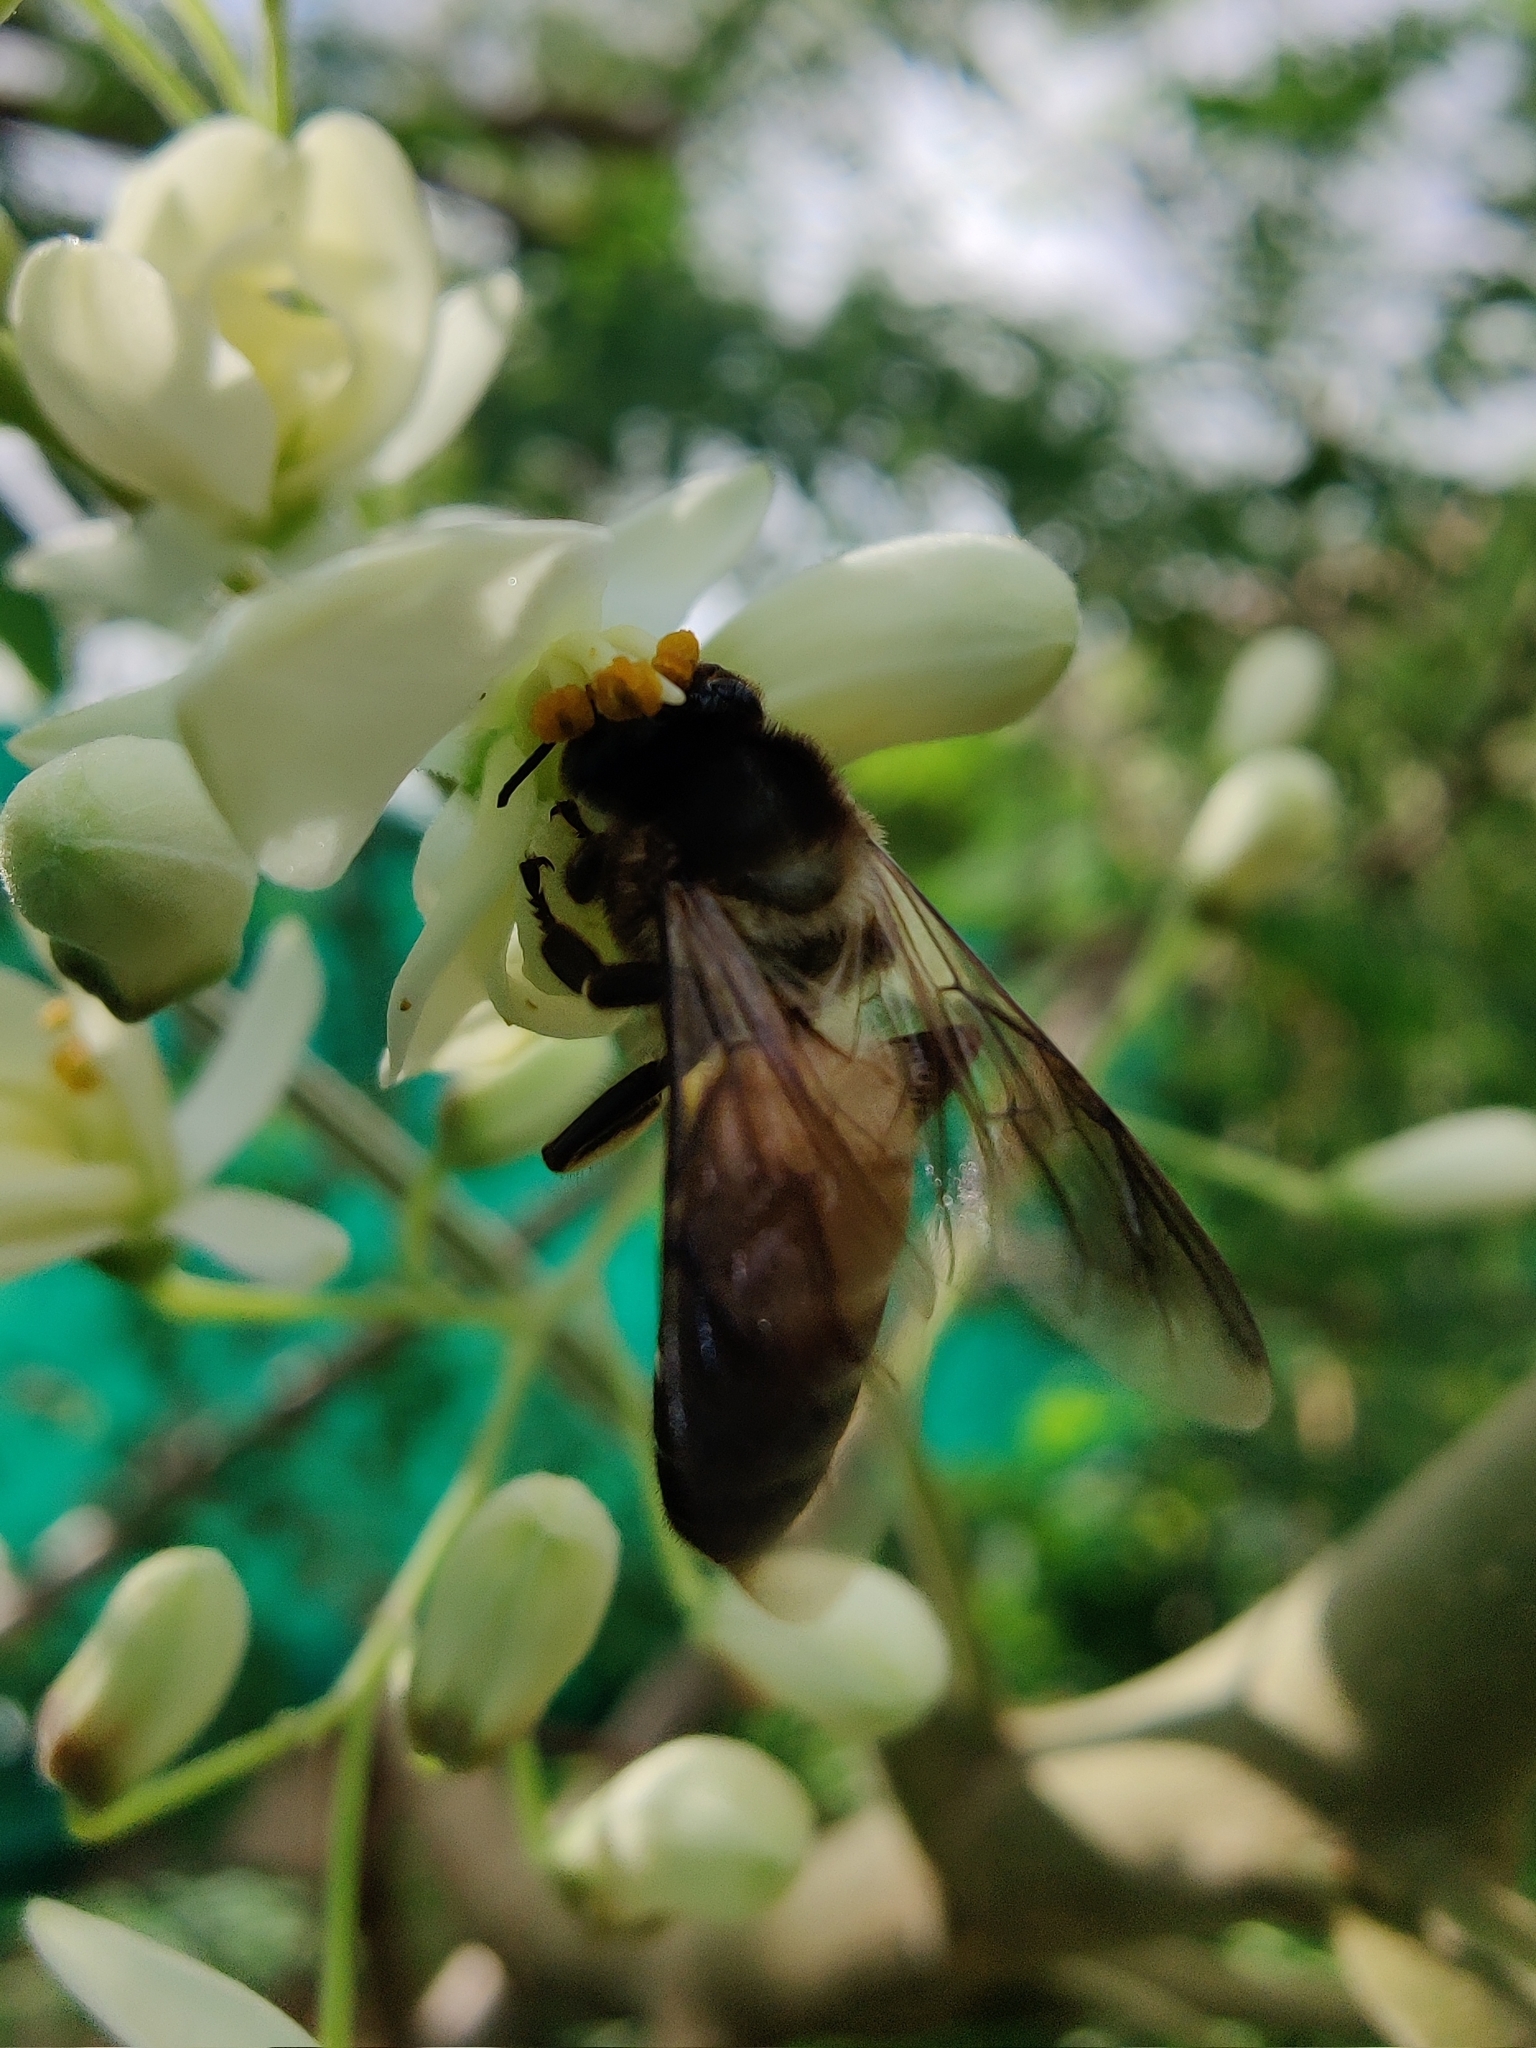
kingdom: Animalia
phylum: Arthropoda
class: Insecta
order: Hymenoptera
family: Apidae
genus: Apis
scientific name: Apis dorsata
